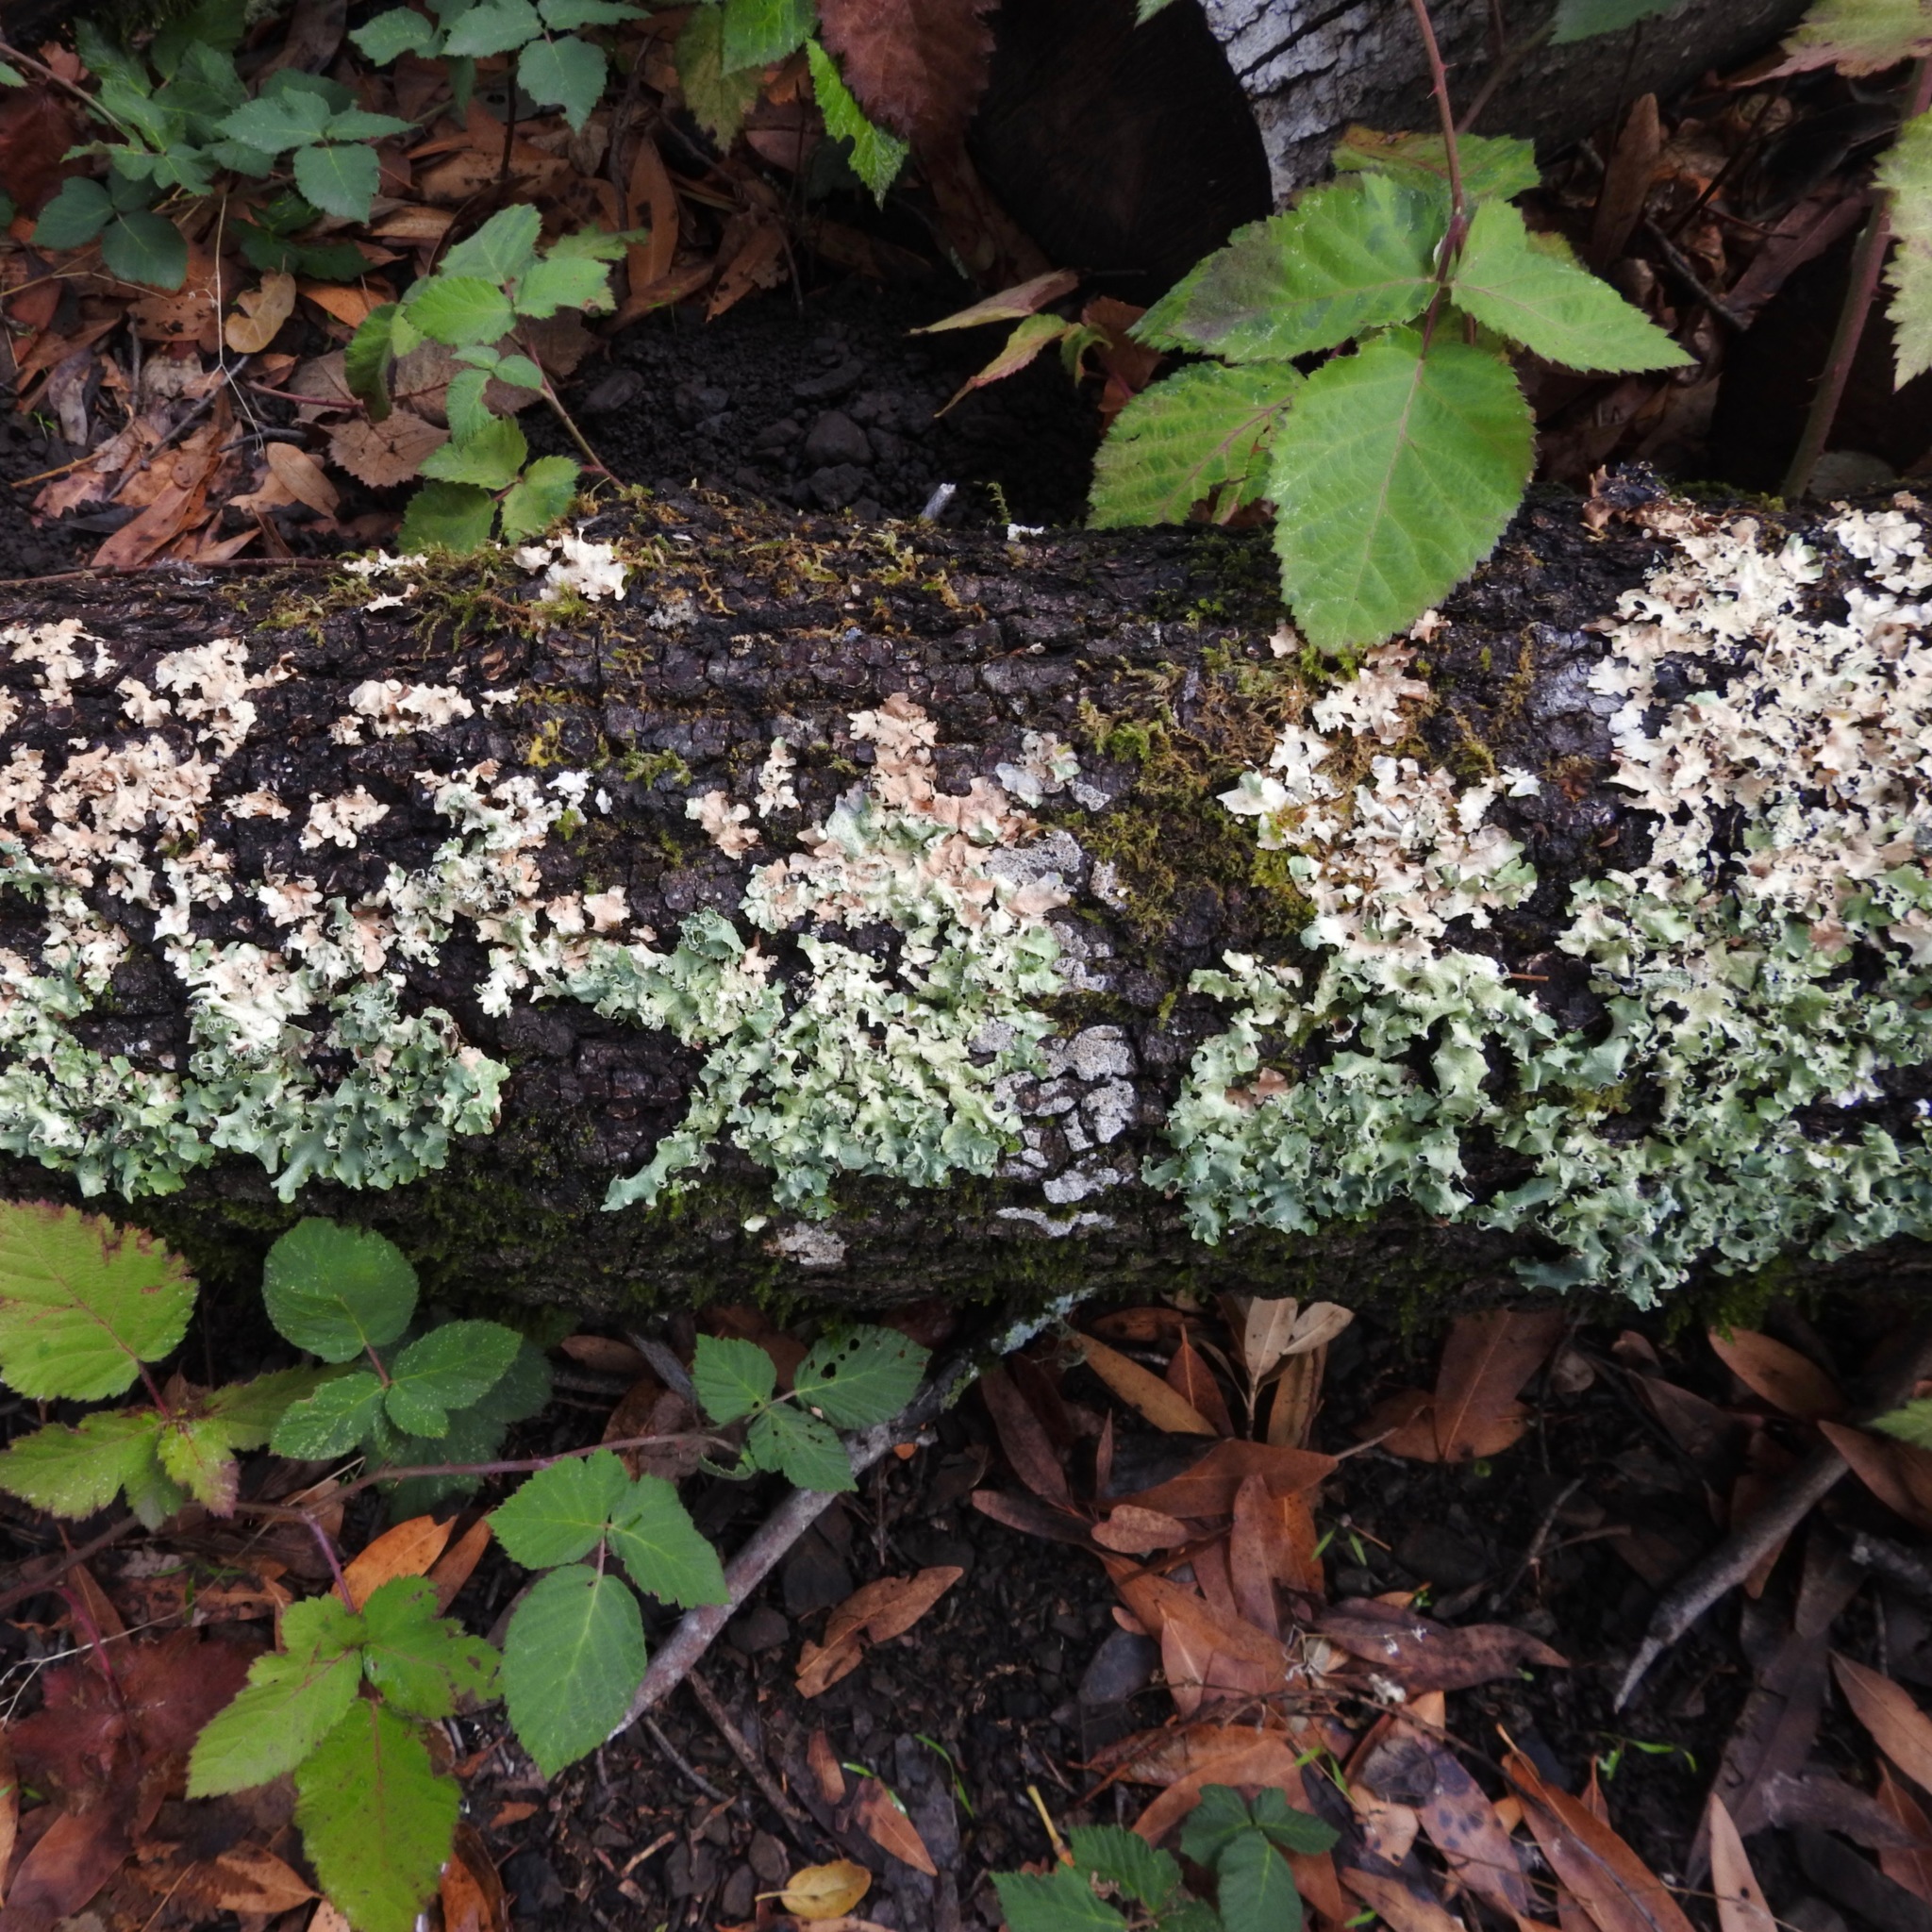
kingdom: Fungi
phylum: Ascomycota
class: Lecanoromycetes
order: Lecanorales
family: Parmeliaceae
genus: Flavoparmelia
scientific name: Flavoparmelia caperata
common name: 40-mile per hour lichen
